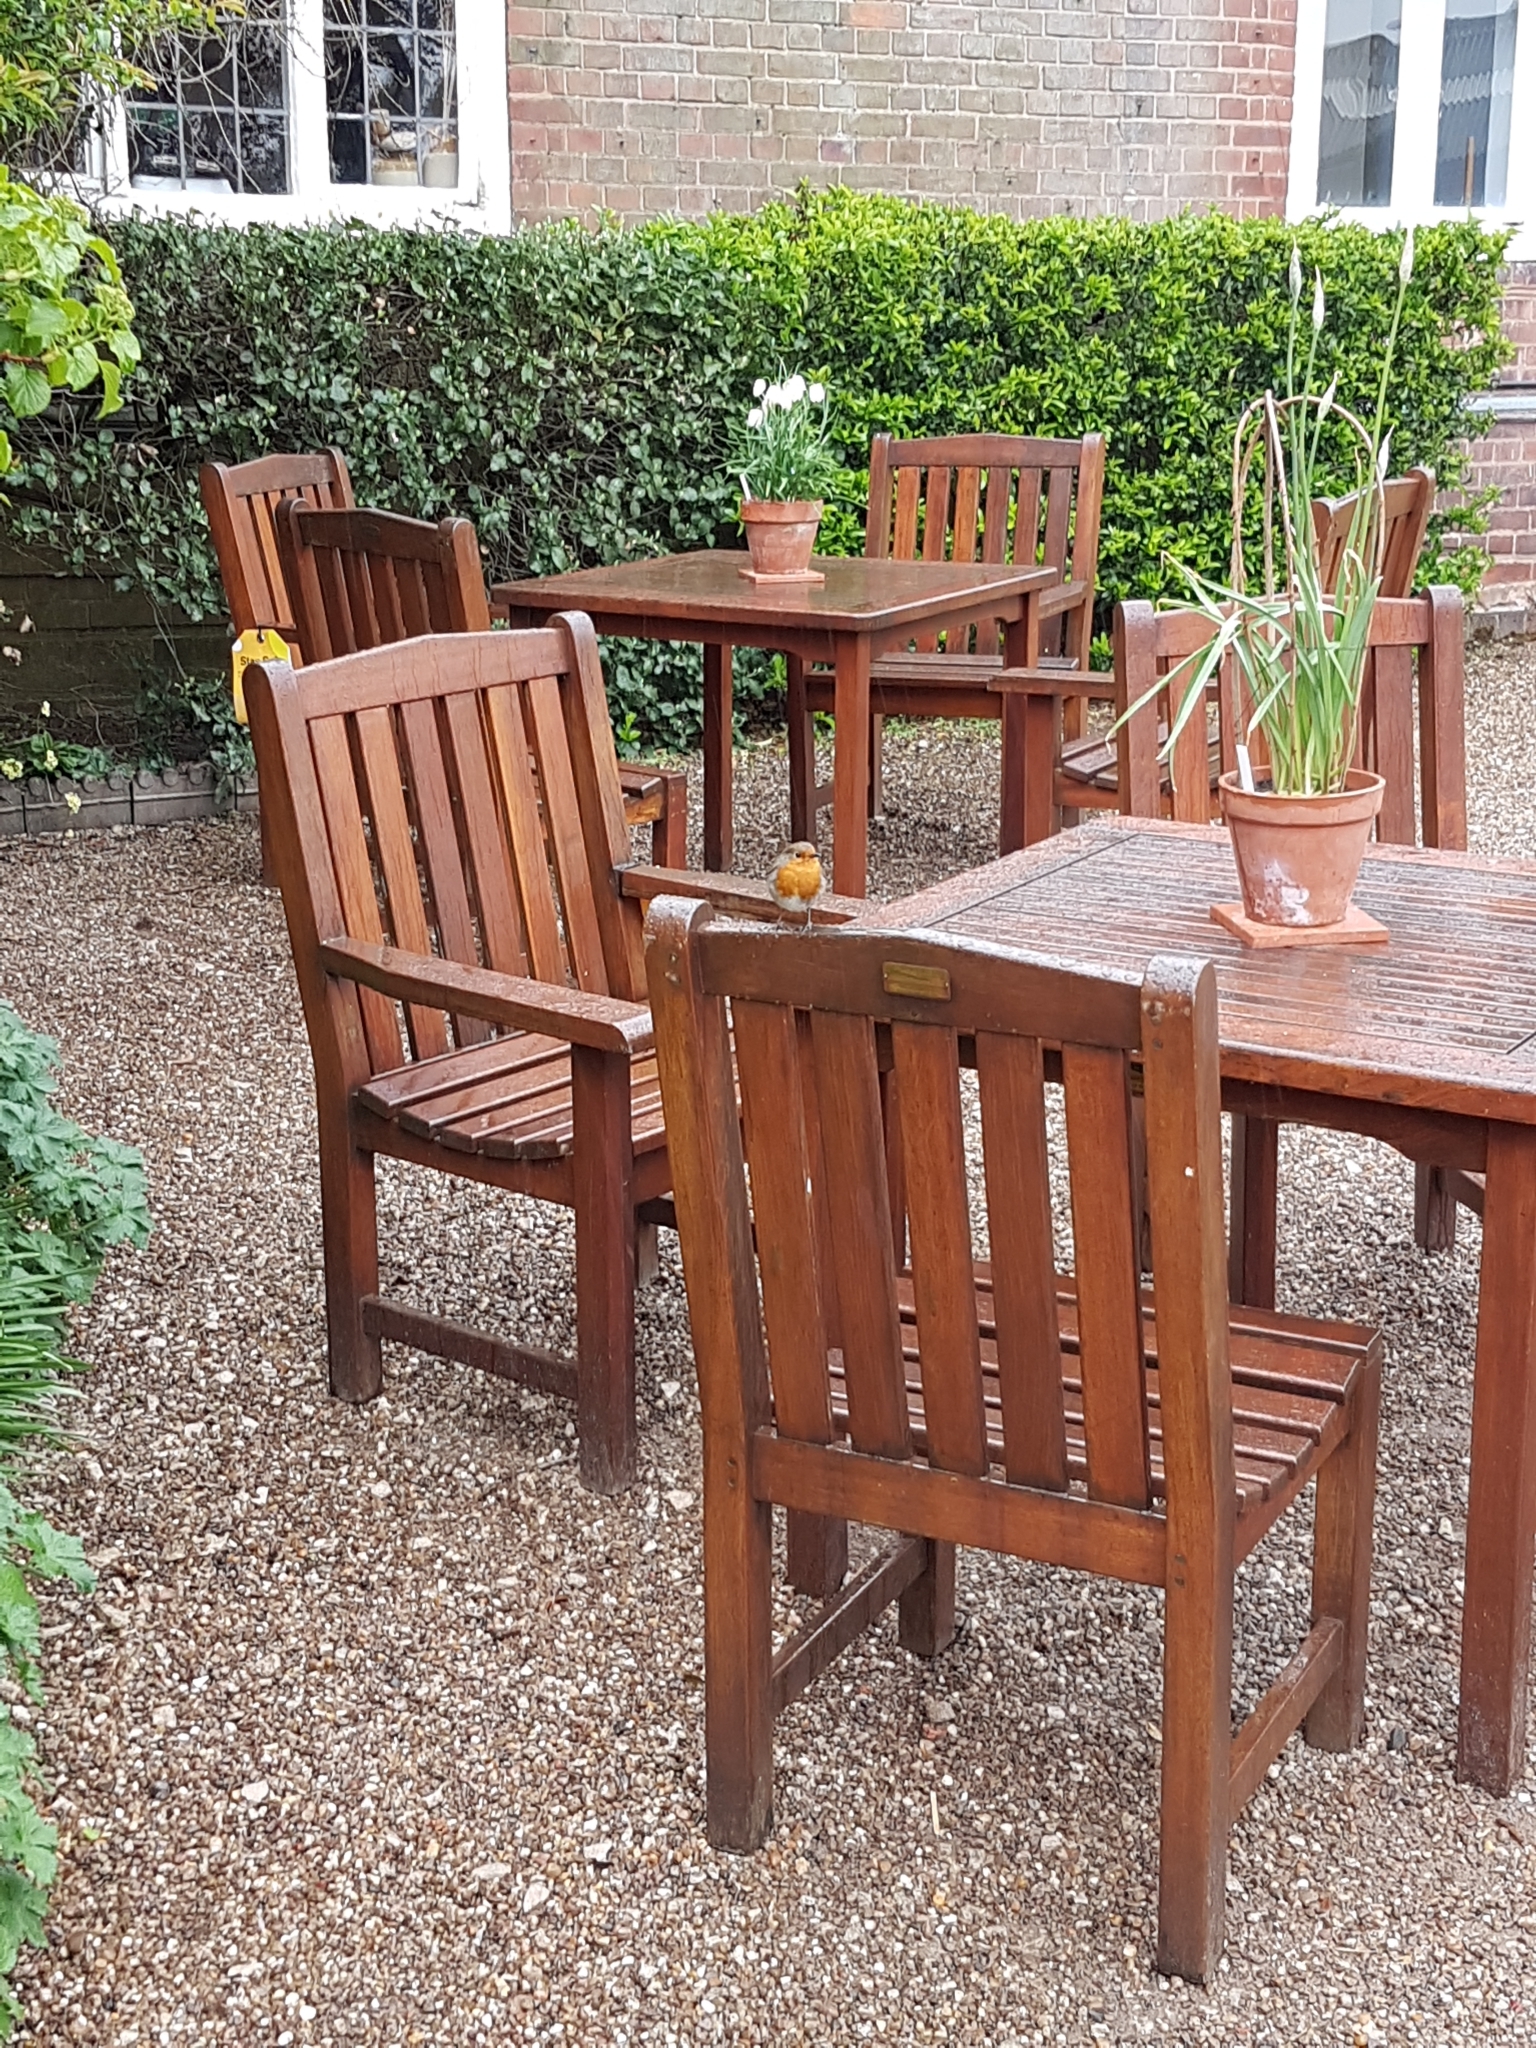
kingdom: Animalia
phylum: Chordata
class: Aves
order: Passeriformes
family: Muscicapidae
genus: Erithacus
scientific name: Erithacus rubecula
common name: European robin
